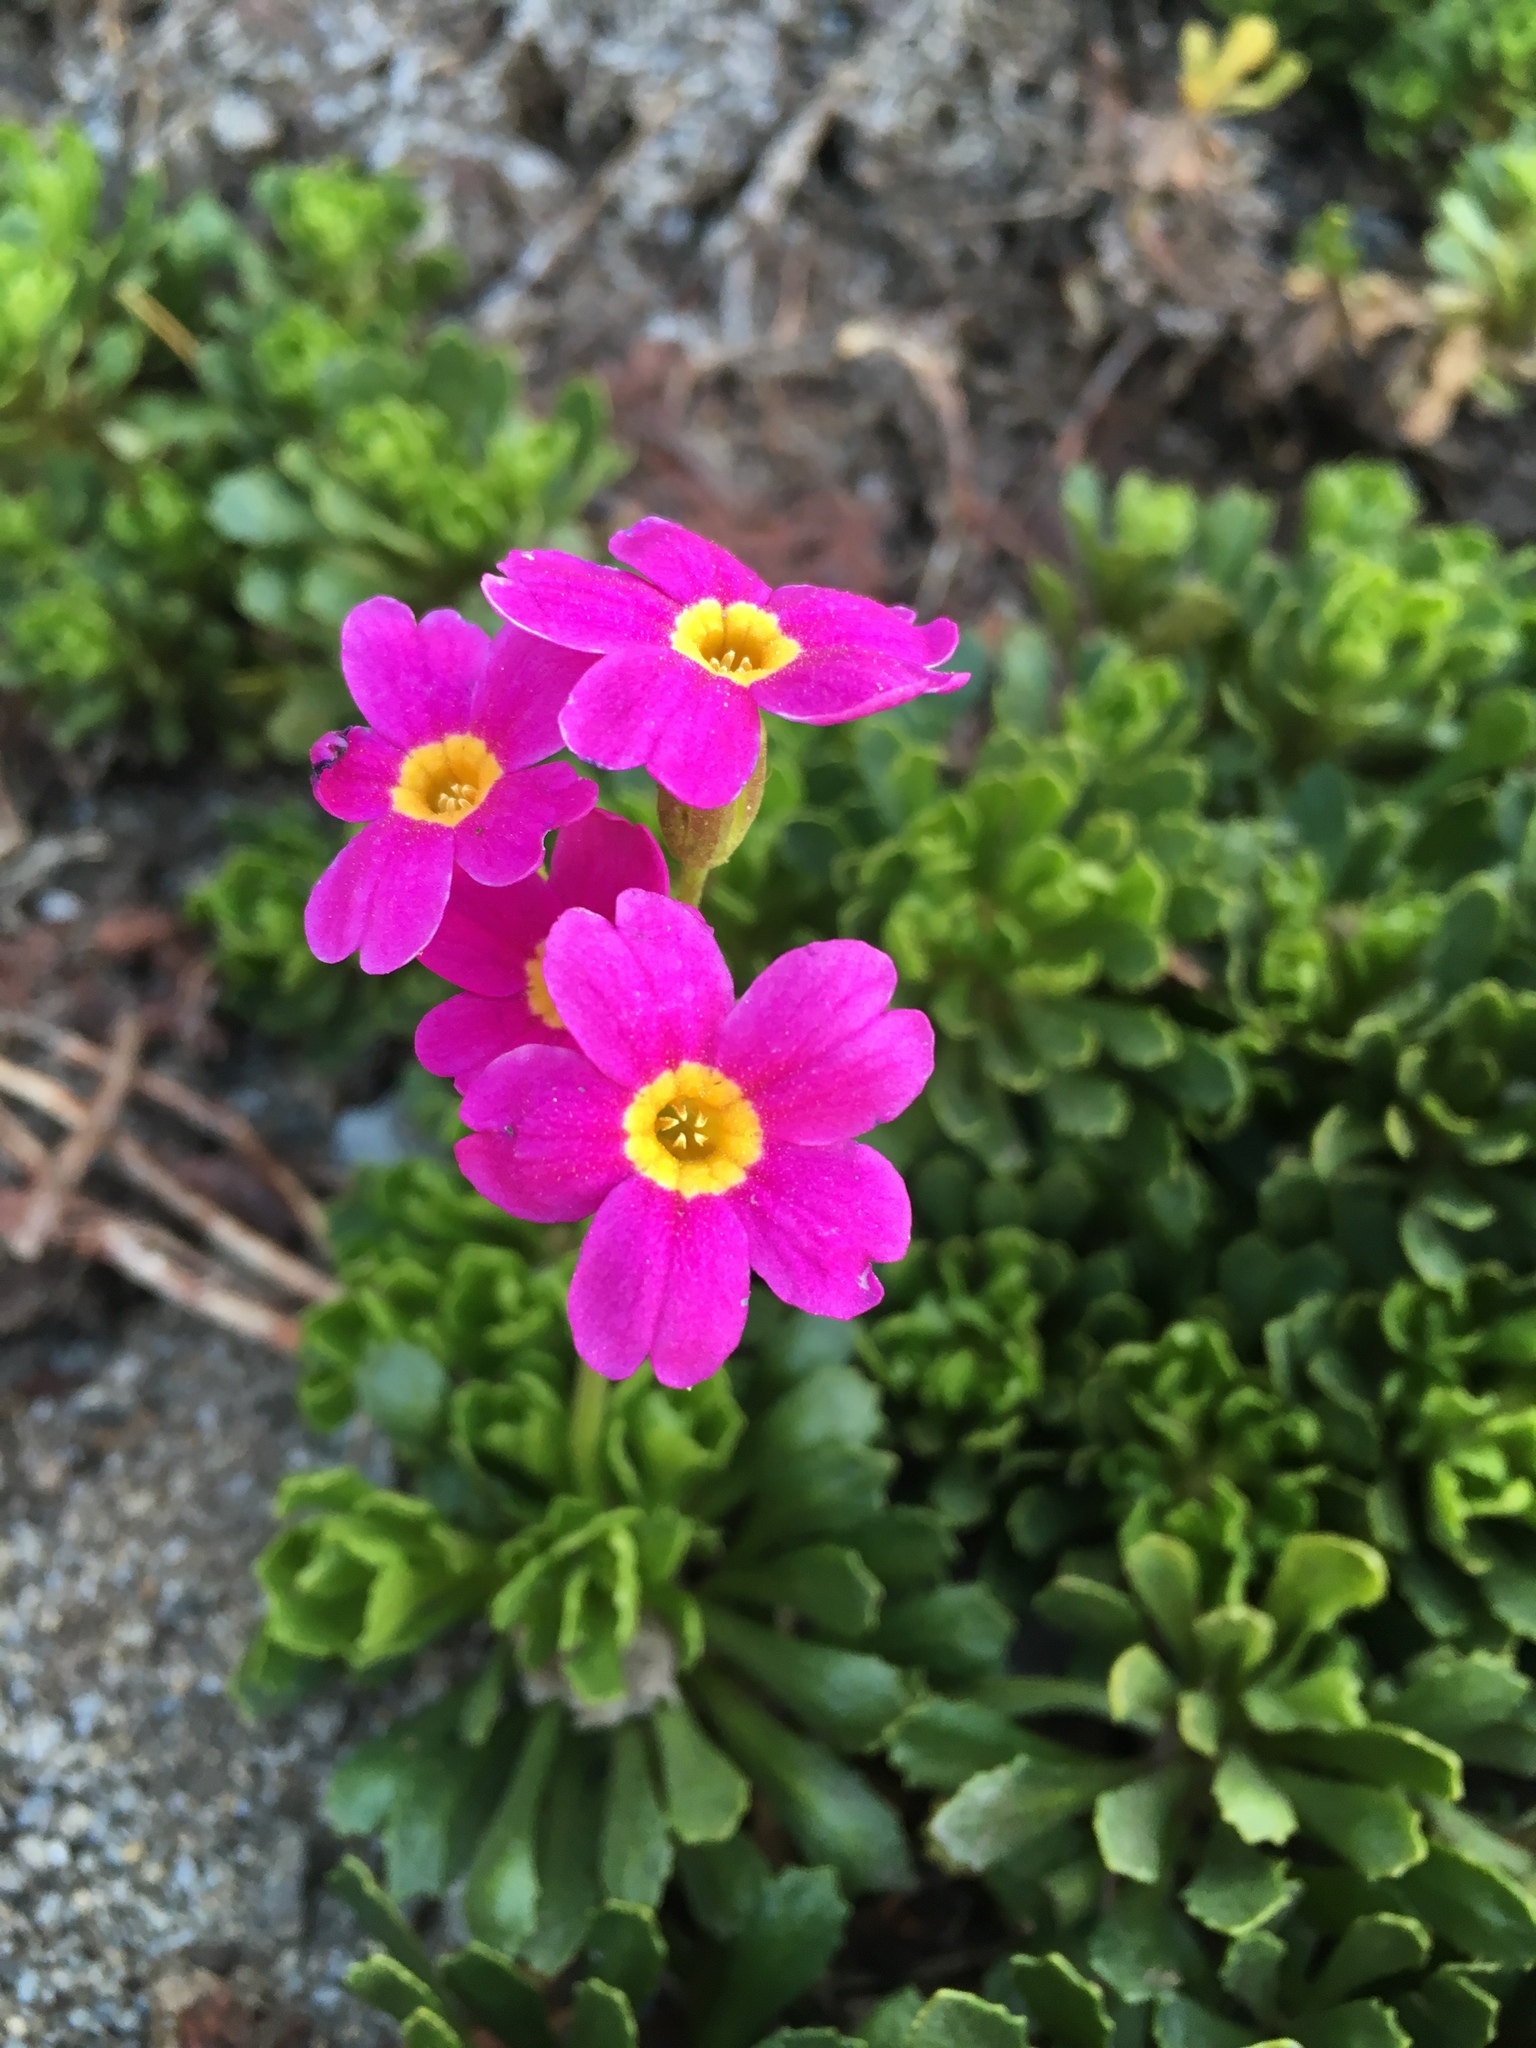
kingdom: Plantae
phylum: Tracheophyta
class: Magnoliopsida
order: Ericales
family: Primulaceae
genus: Primula
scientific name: Primula suffrutescens
